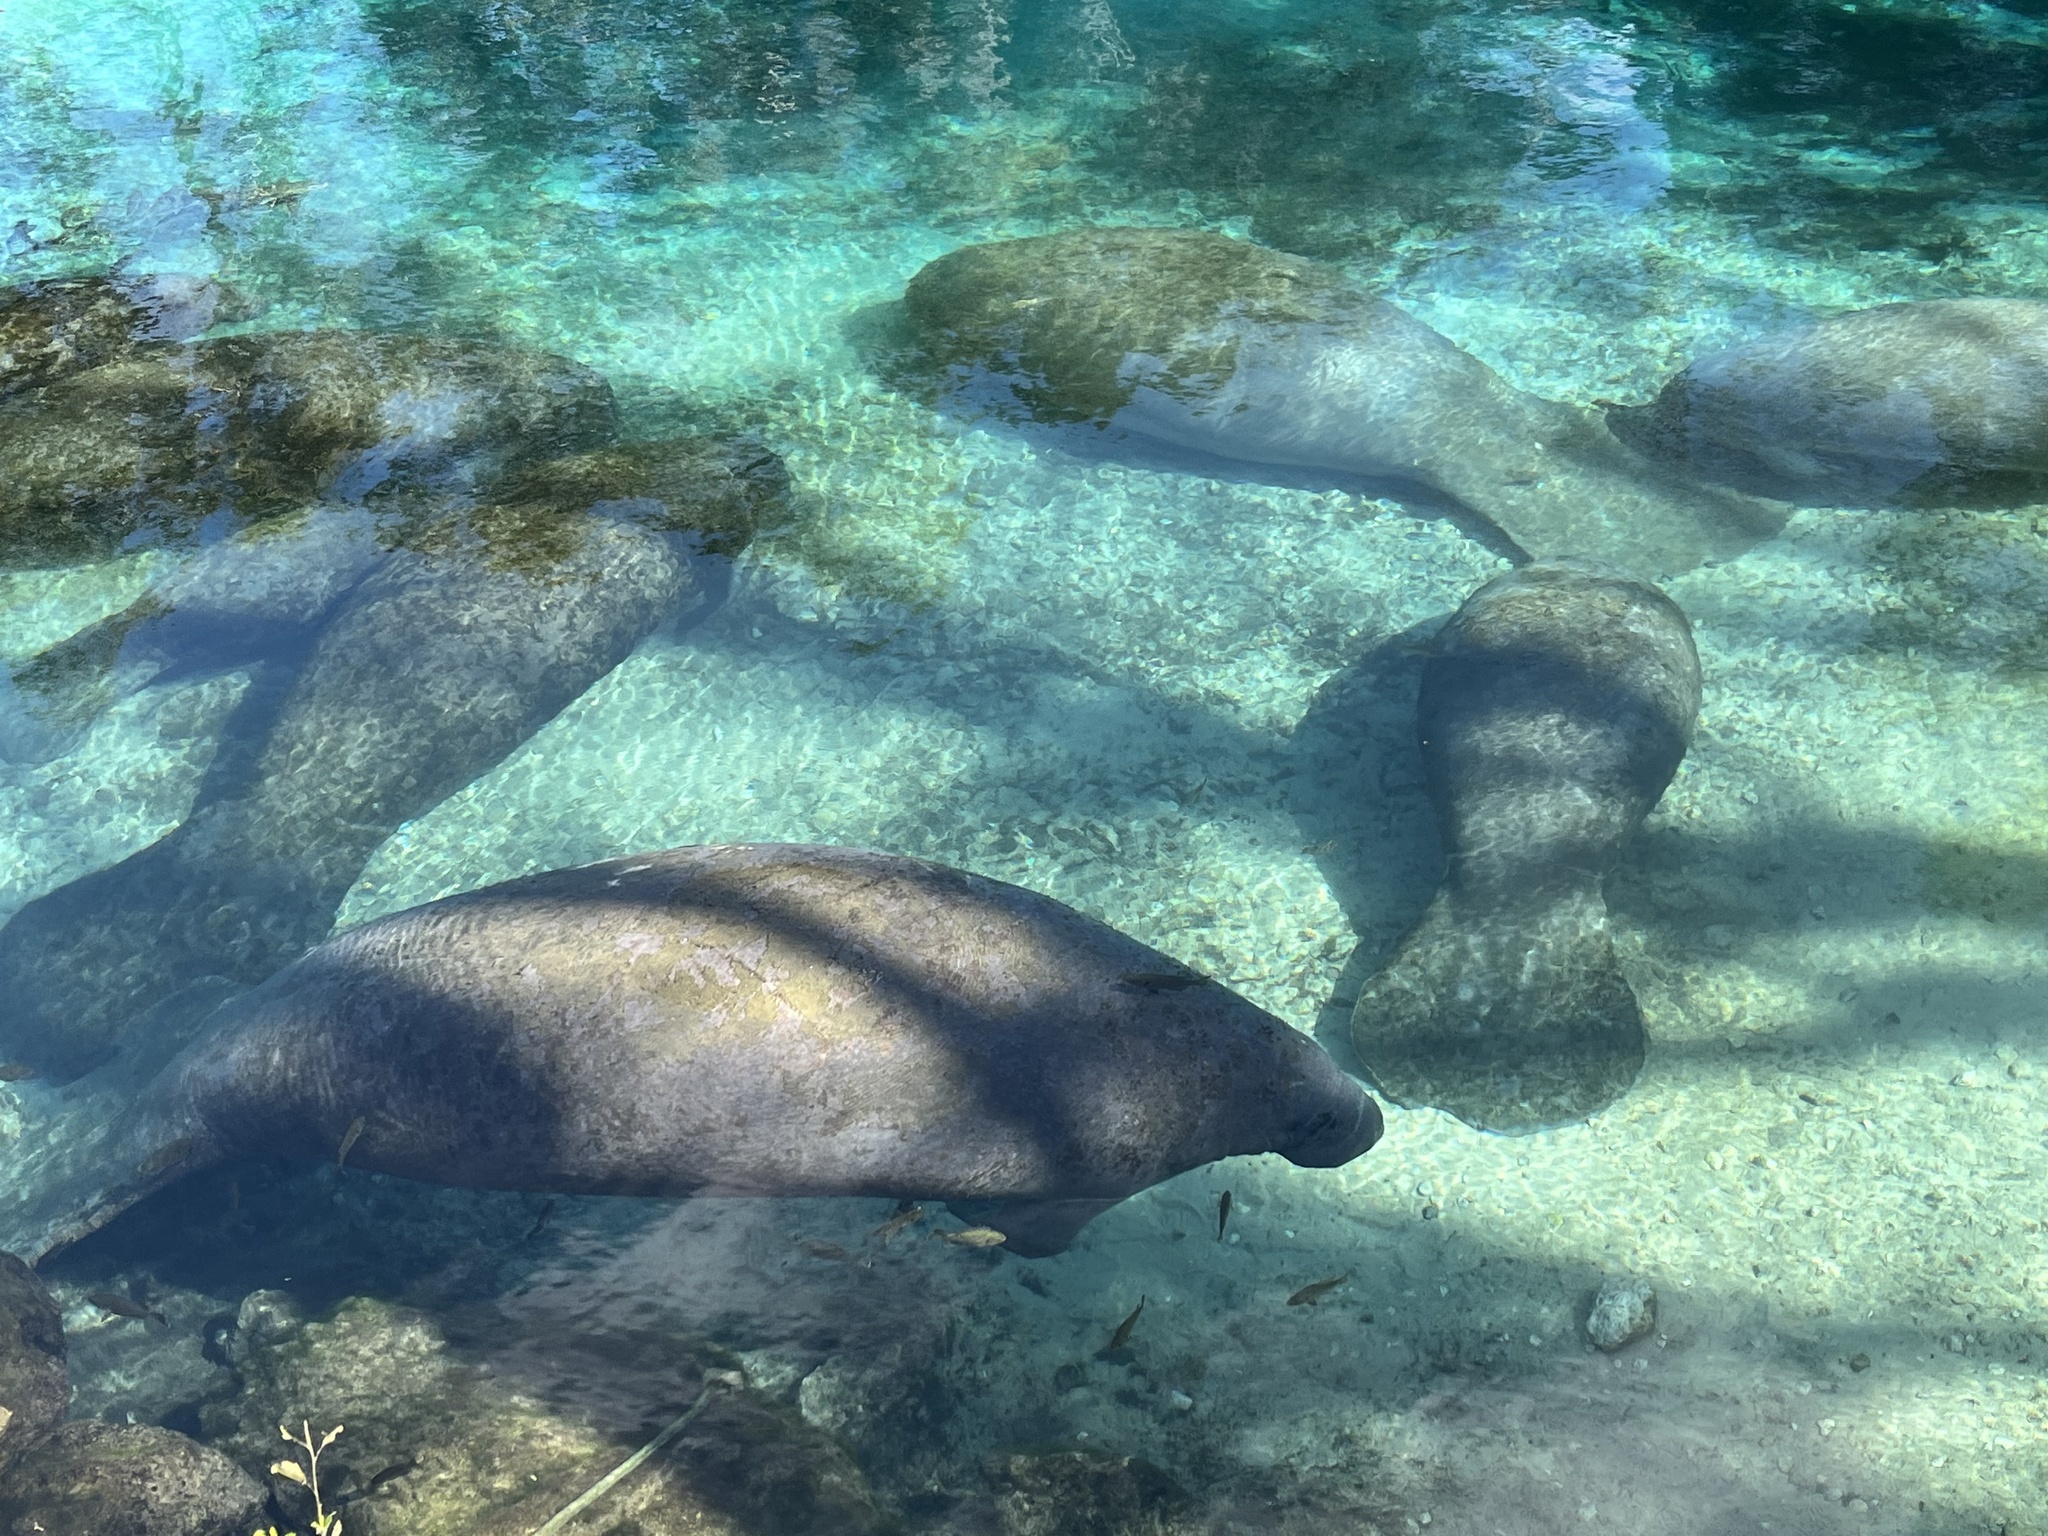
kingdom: Animalia
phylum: Chordata
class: Mammalia
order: Sirenia
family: Trichechidae
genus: Trichechus
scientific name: Trichechus manatus
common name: West indian manatee
